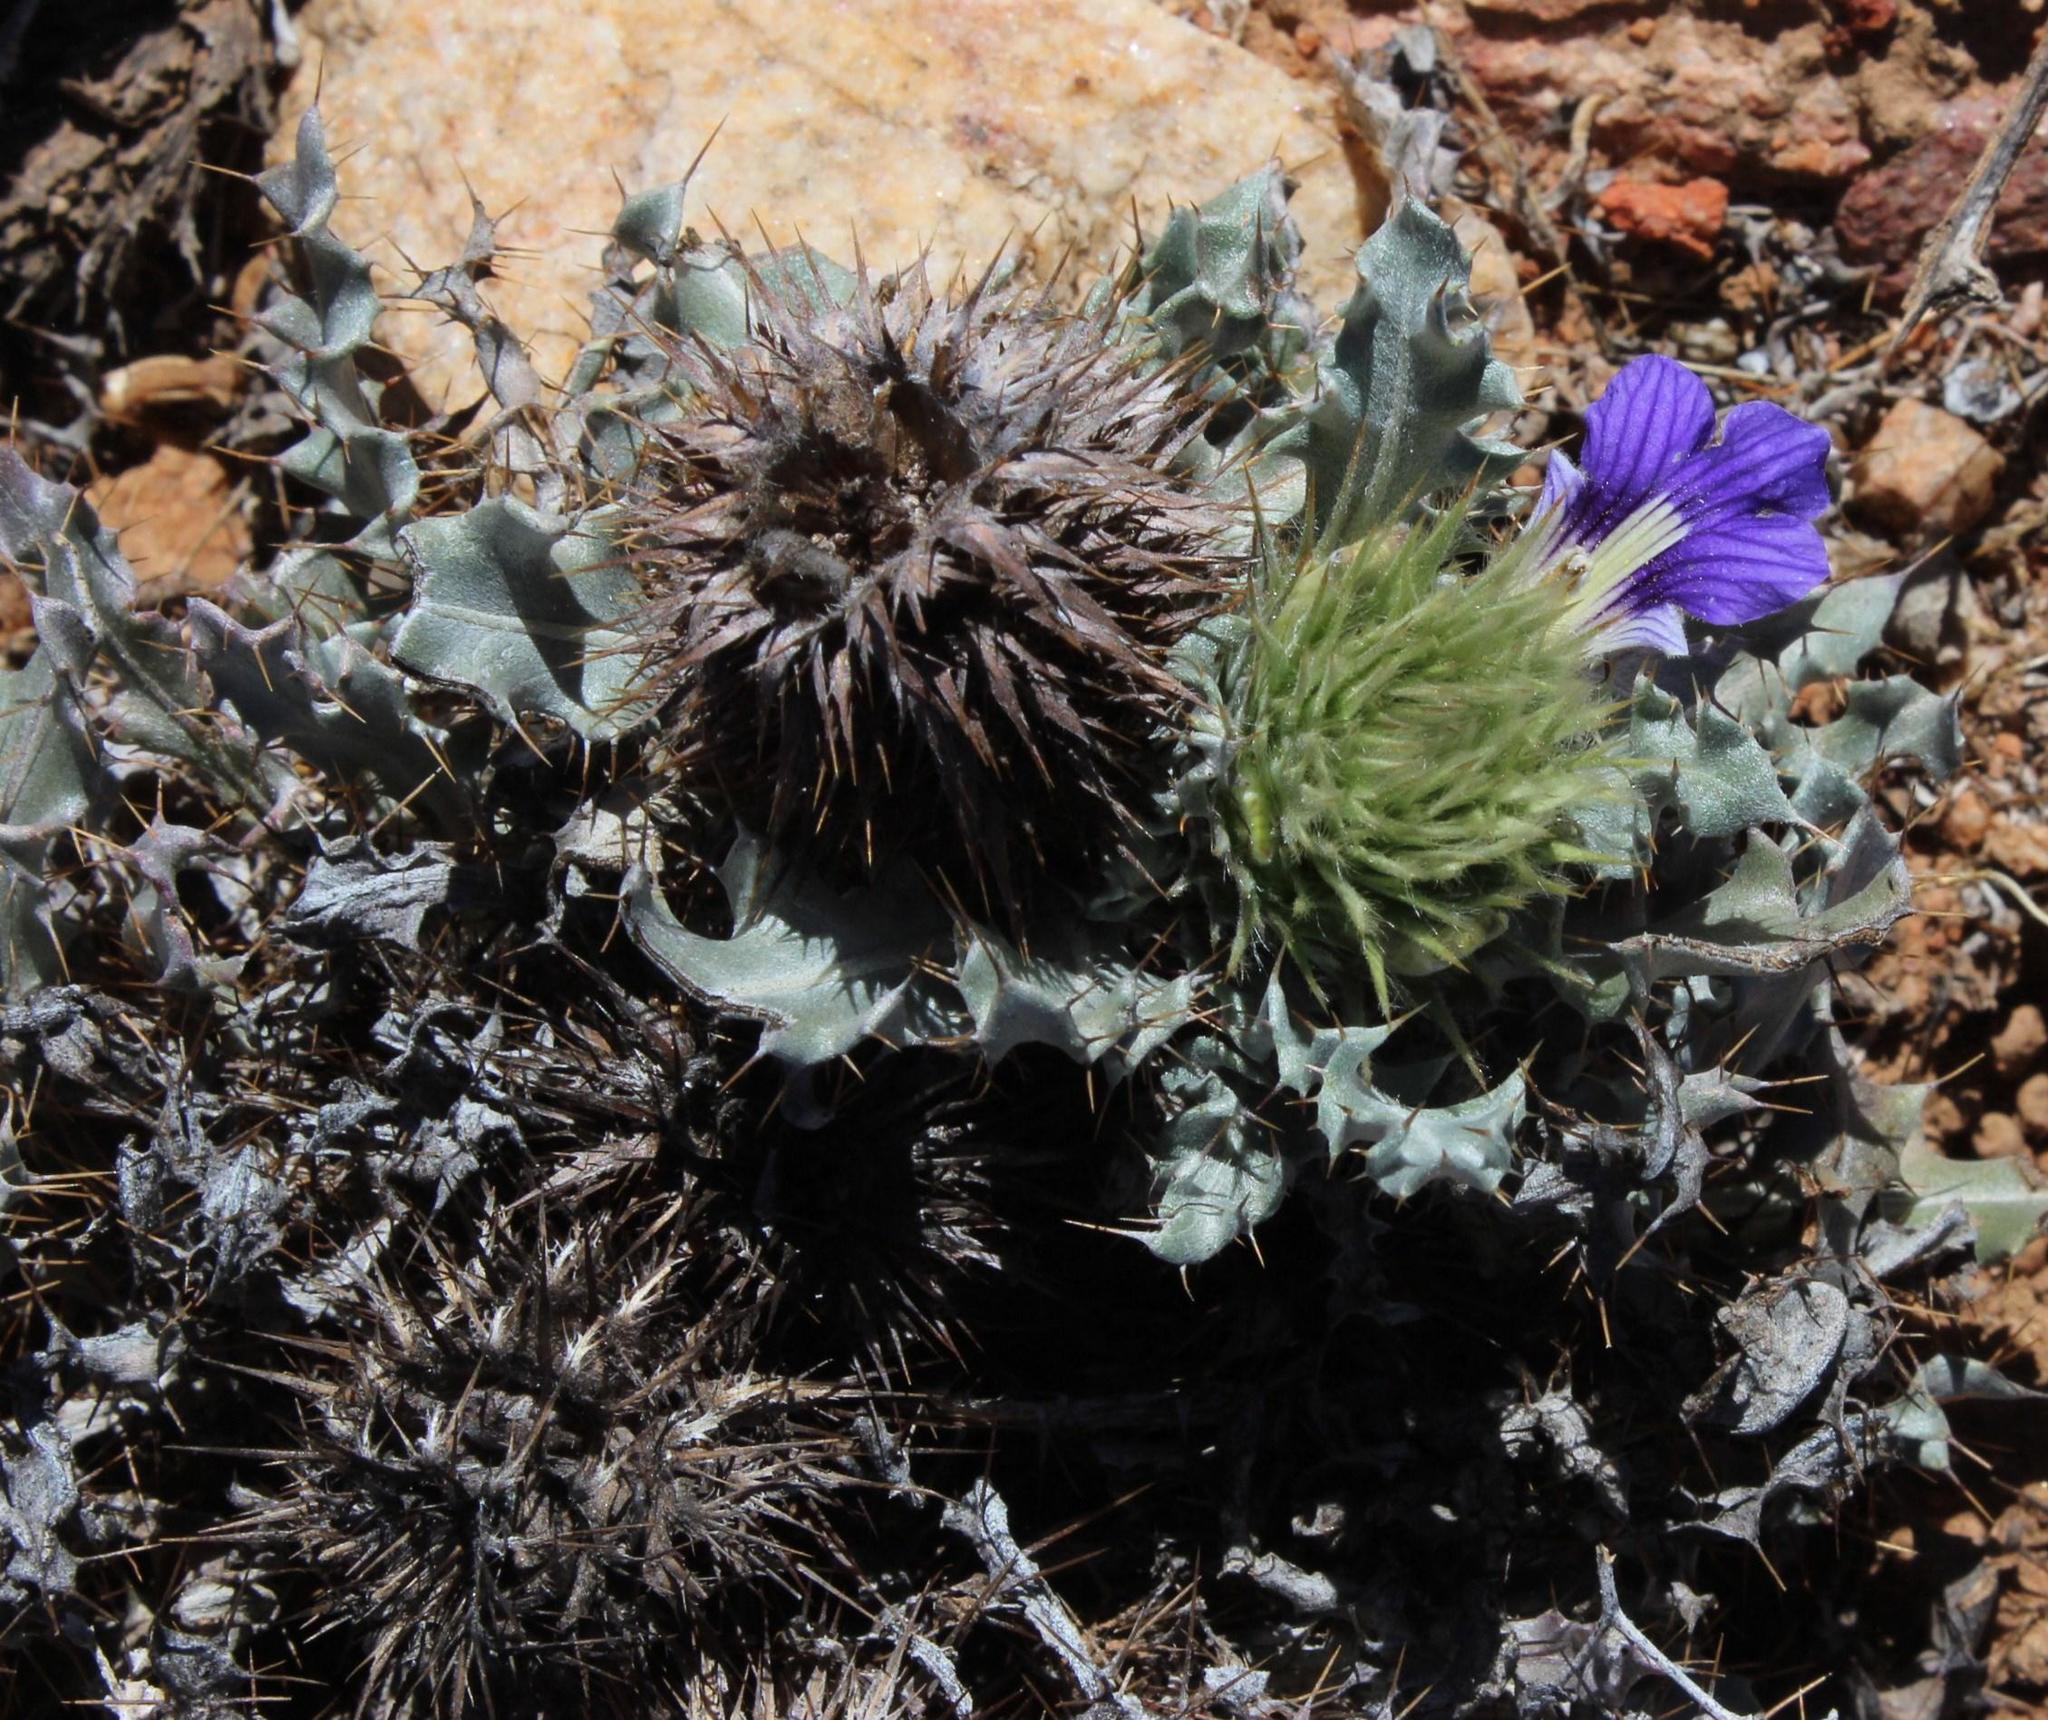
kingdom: Plantae
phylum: Tracheophyta
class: Magnoliopsida
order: Lamiales
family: Acanthaceae
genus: Acanthopsis
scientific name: Acanthopsis ludoviciana
